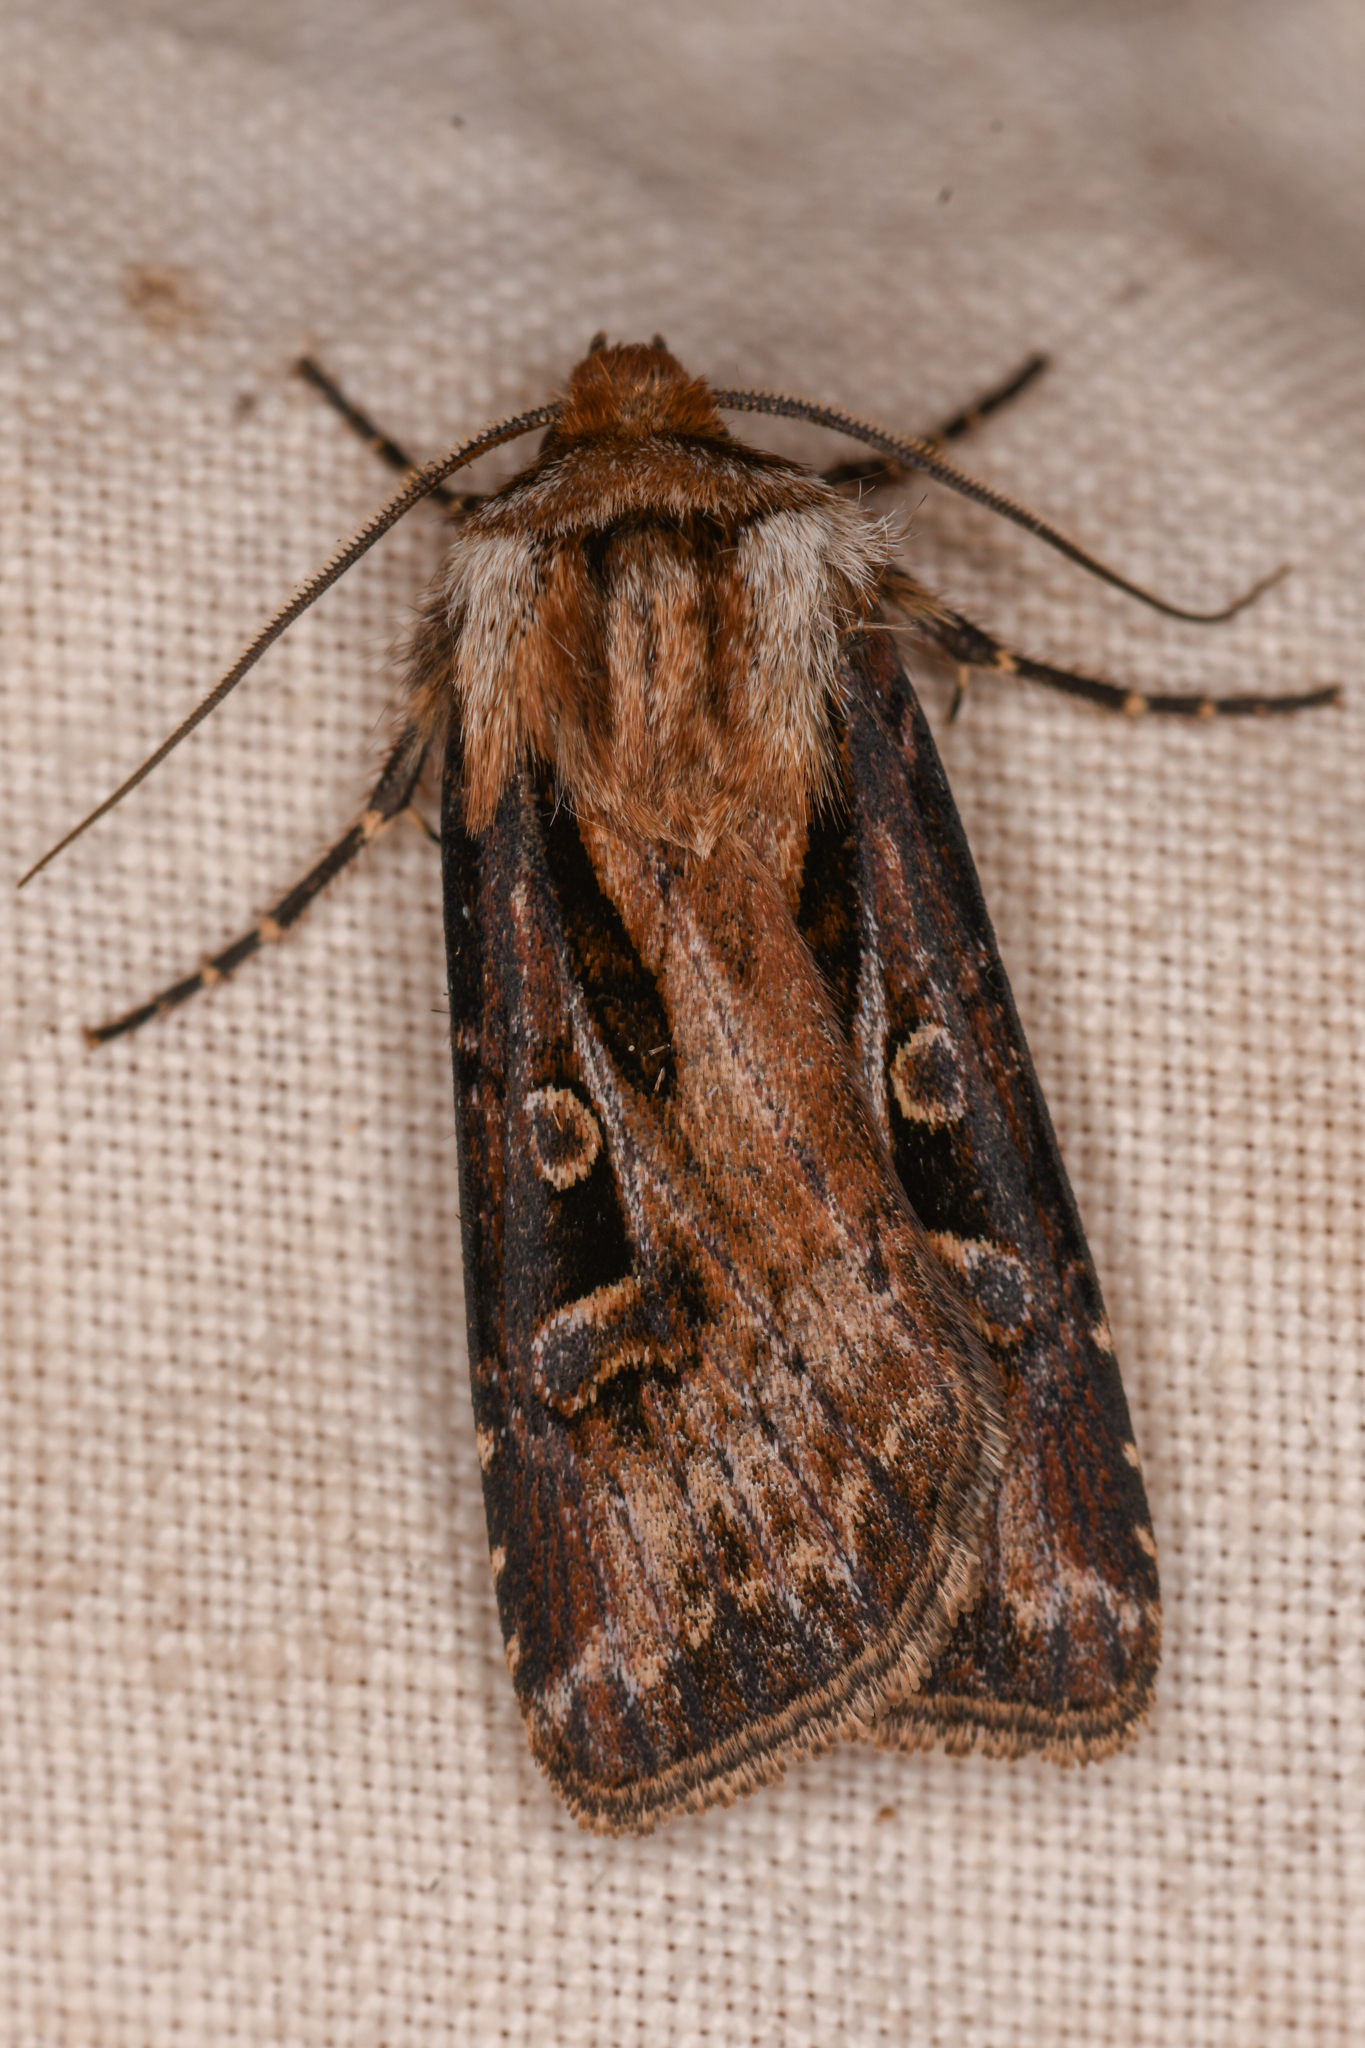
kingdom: Animalia
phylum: Arthropoda
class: Insecta
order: Lepidoptera
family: Noctuidae
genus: Agrotis
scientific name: Agrotis vancouverensis
